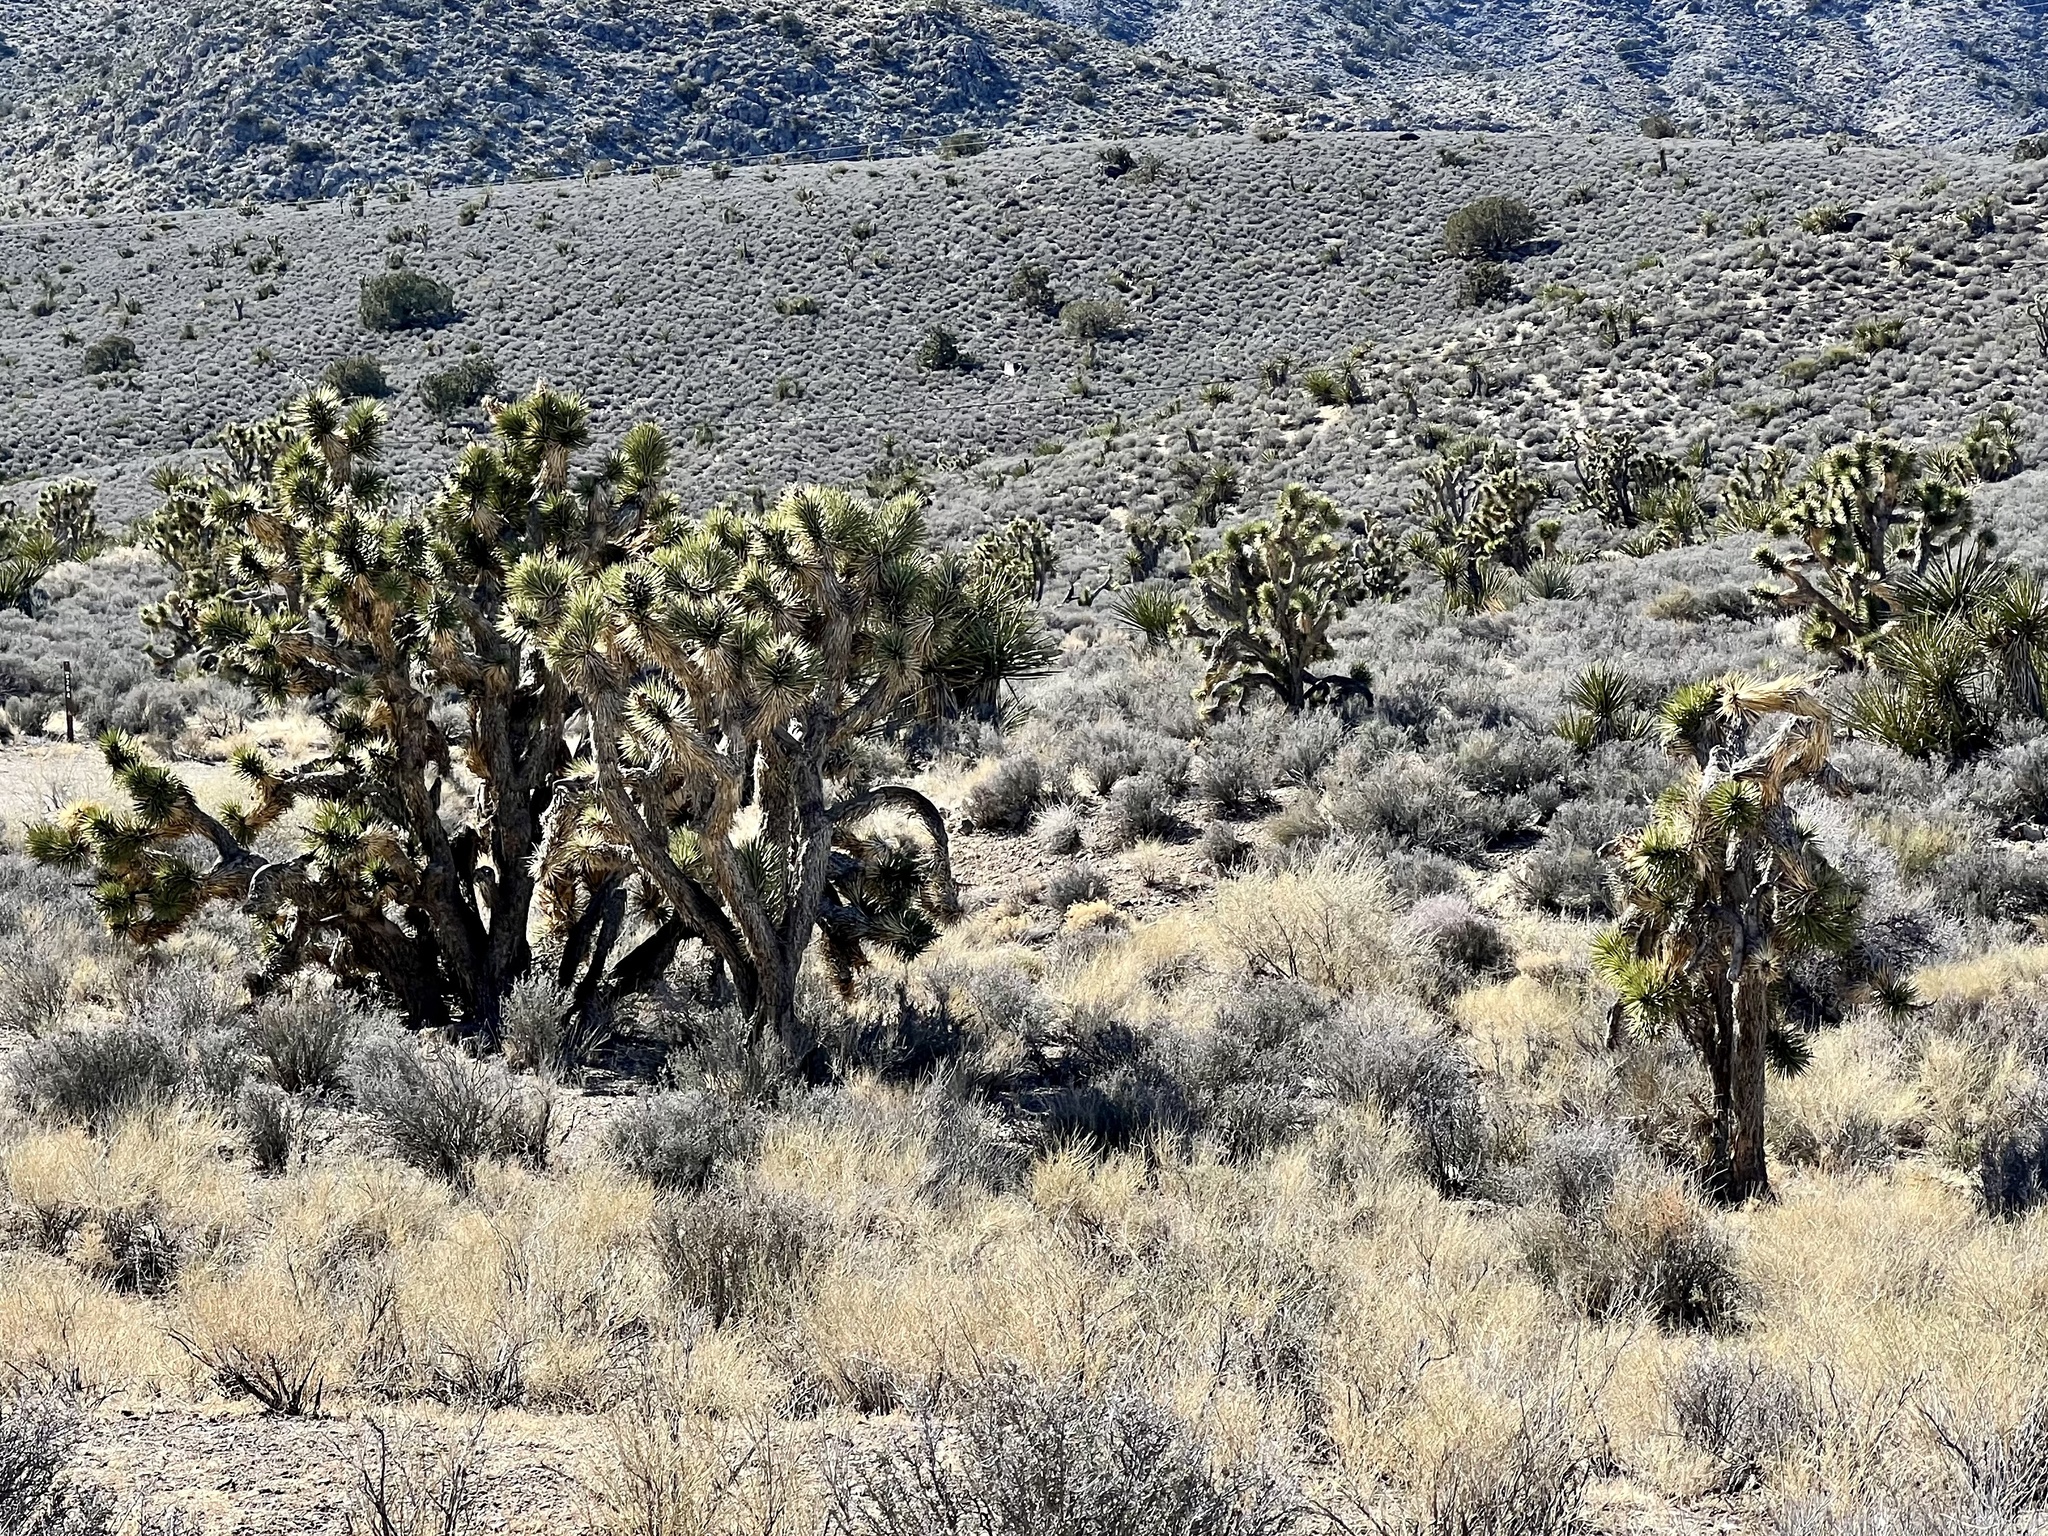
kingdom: Plantae
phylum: Tracheophyta
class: Liliopsida
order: Asparagales
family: Asparagaceae
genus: Yucca
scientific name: Yucca brevifolia
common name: Joshua tree
